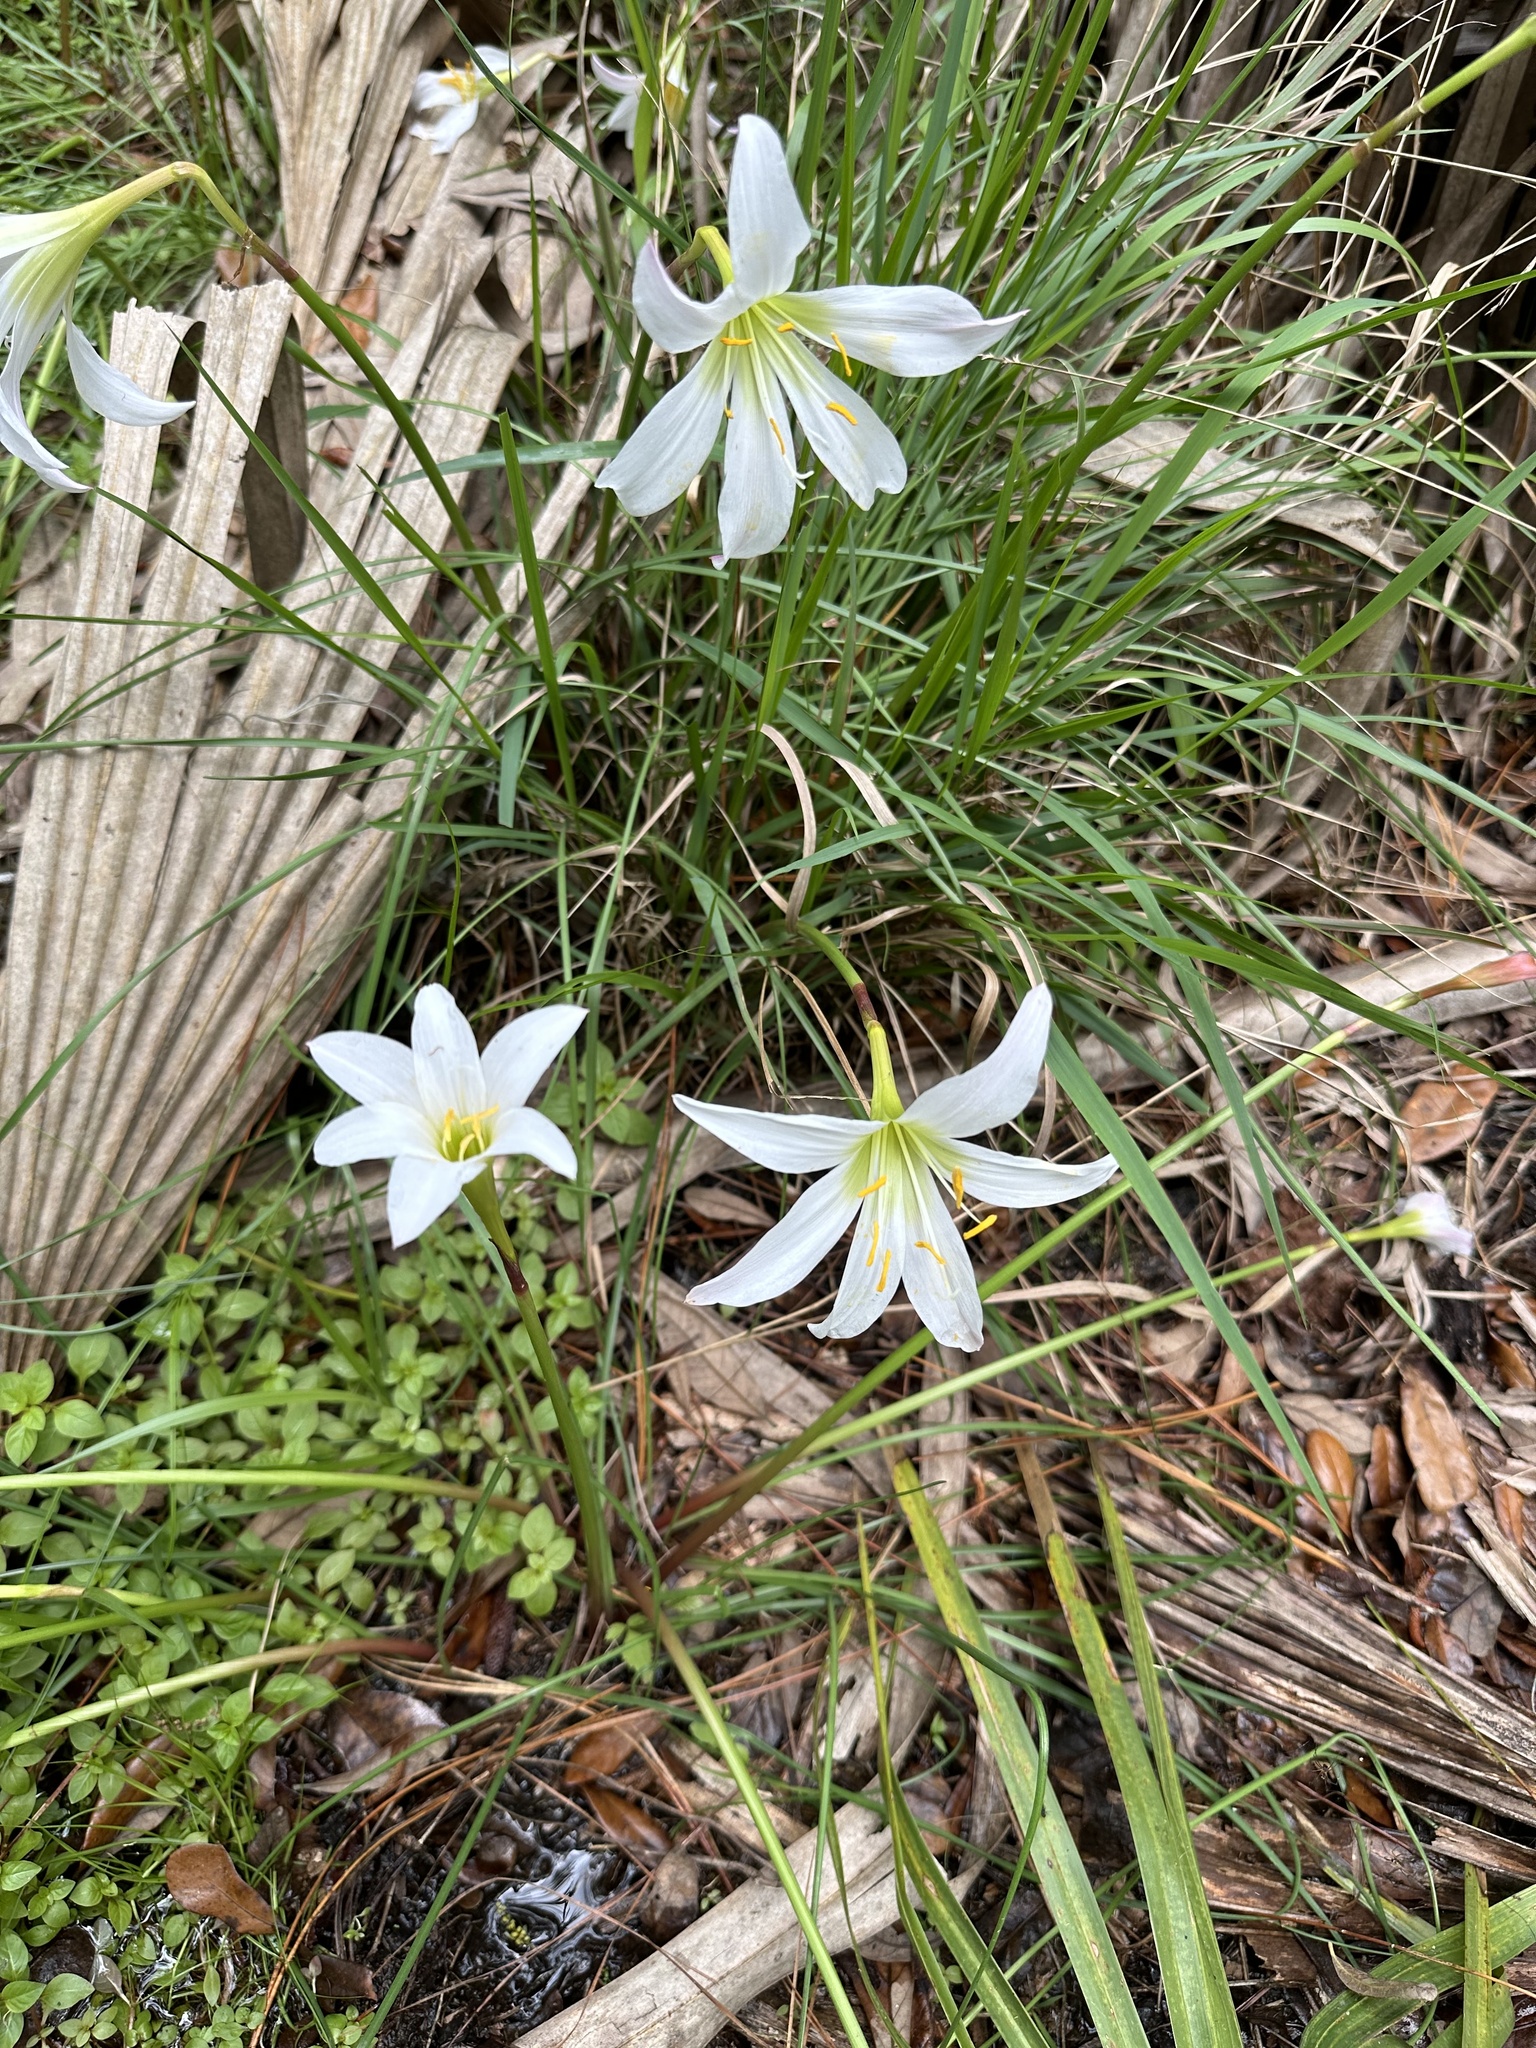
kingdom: Plantae
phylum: Tracheophyta
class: Liliopsida
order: Asparagales
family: Amaryllidaceae
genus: Zephyranthes
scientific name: Zephyranthes atamasco
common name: Atamasco lily
